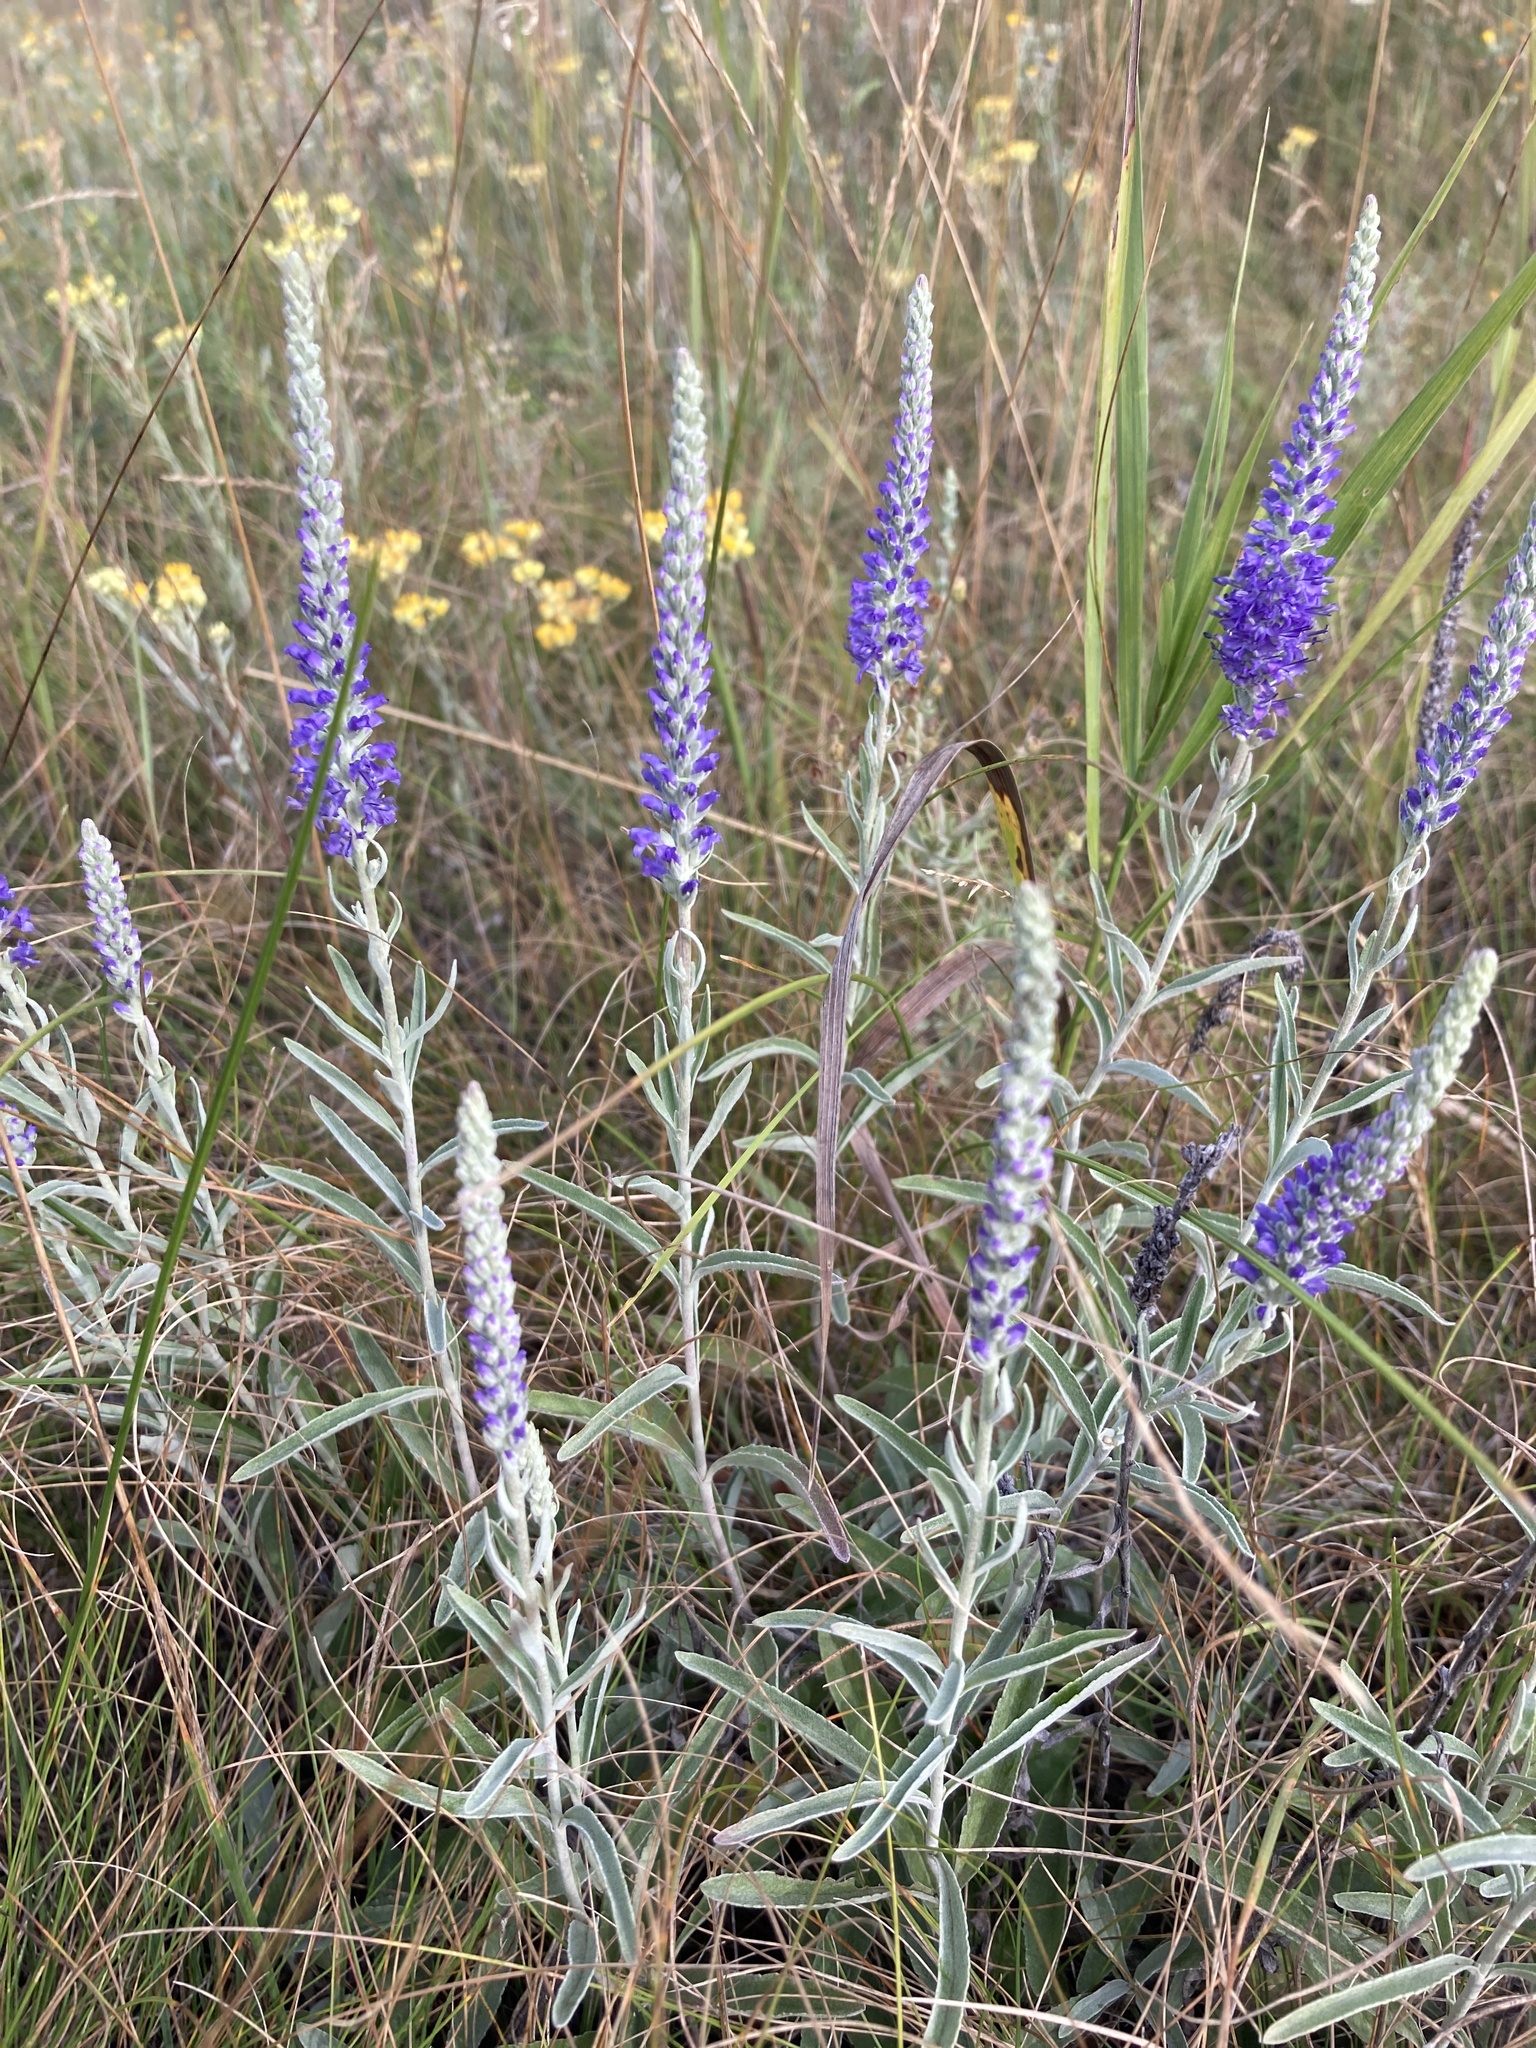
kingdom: Plantae
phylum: Tracheophyta
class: Magnoliopsida
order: Lamiales
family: Plantaginaceae
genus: Veronica
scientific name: Veronica incana
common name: Silver speedwell
